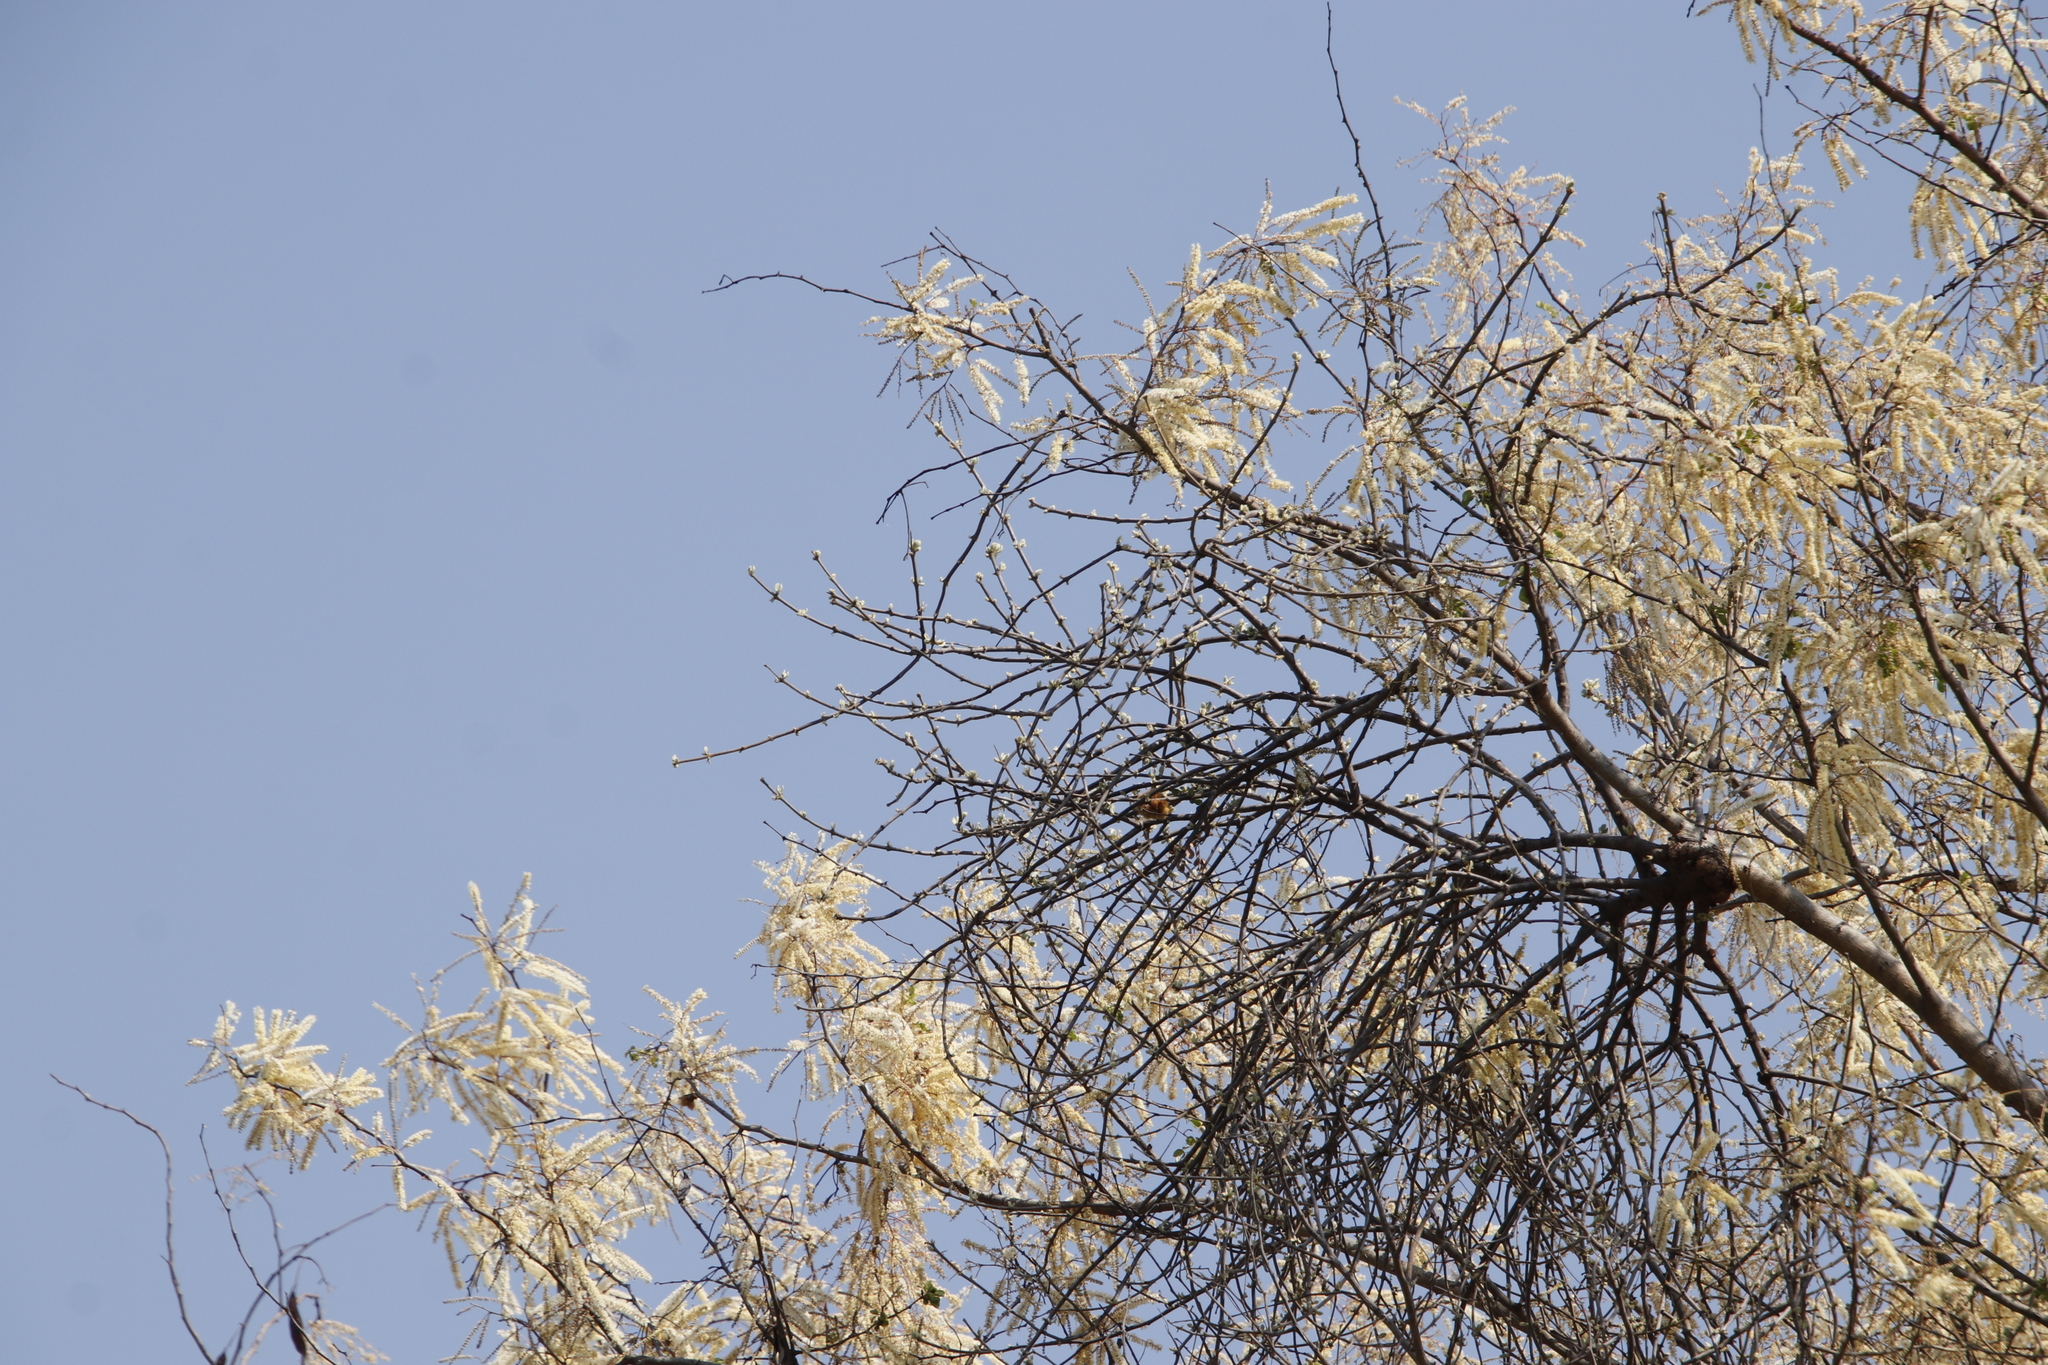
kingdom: Plantae
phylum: Tracheophyta
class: Magnoliopsida
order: Fabales
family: Fabaceae
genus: Senegalia
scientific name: Senegalia nigrescens
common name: Knobthorn
